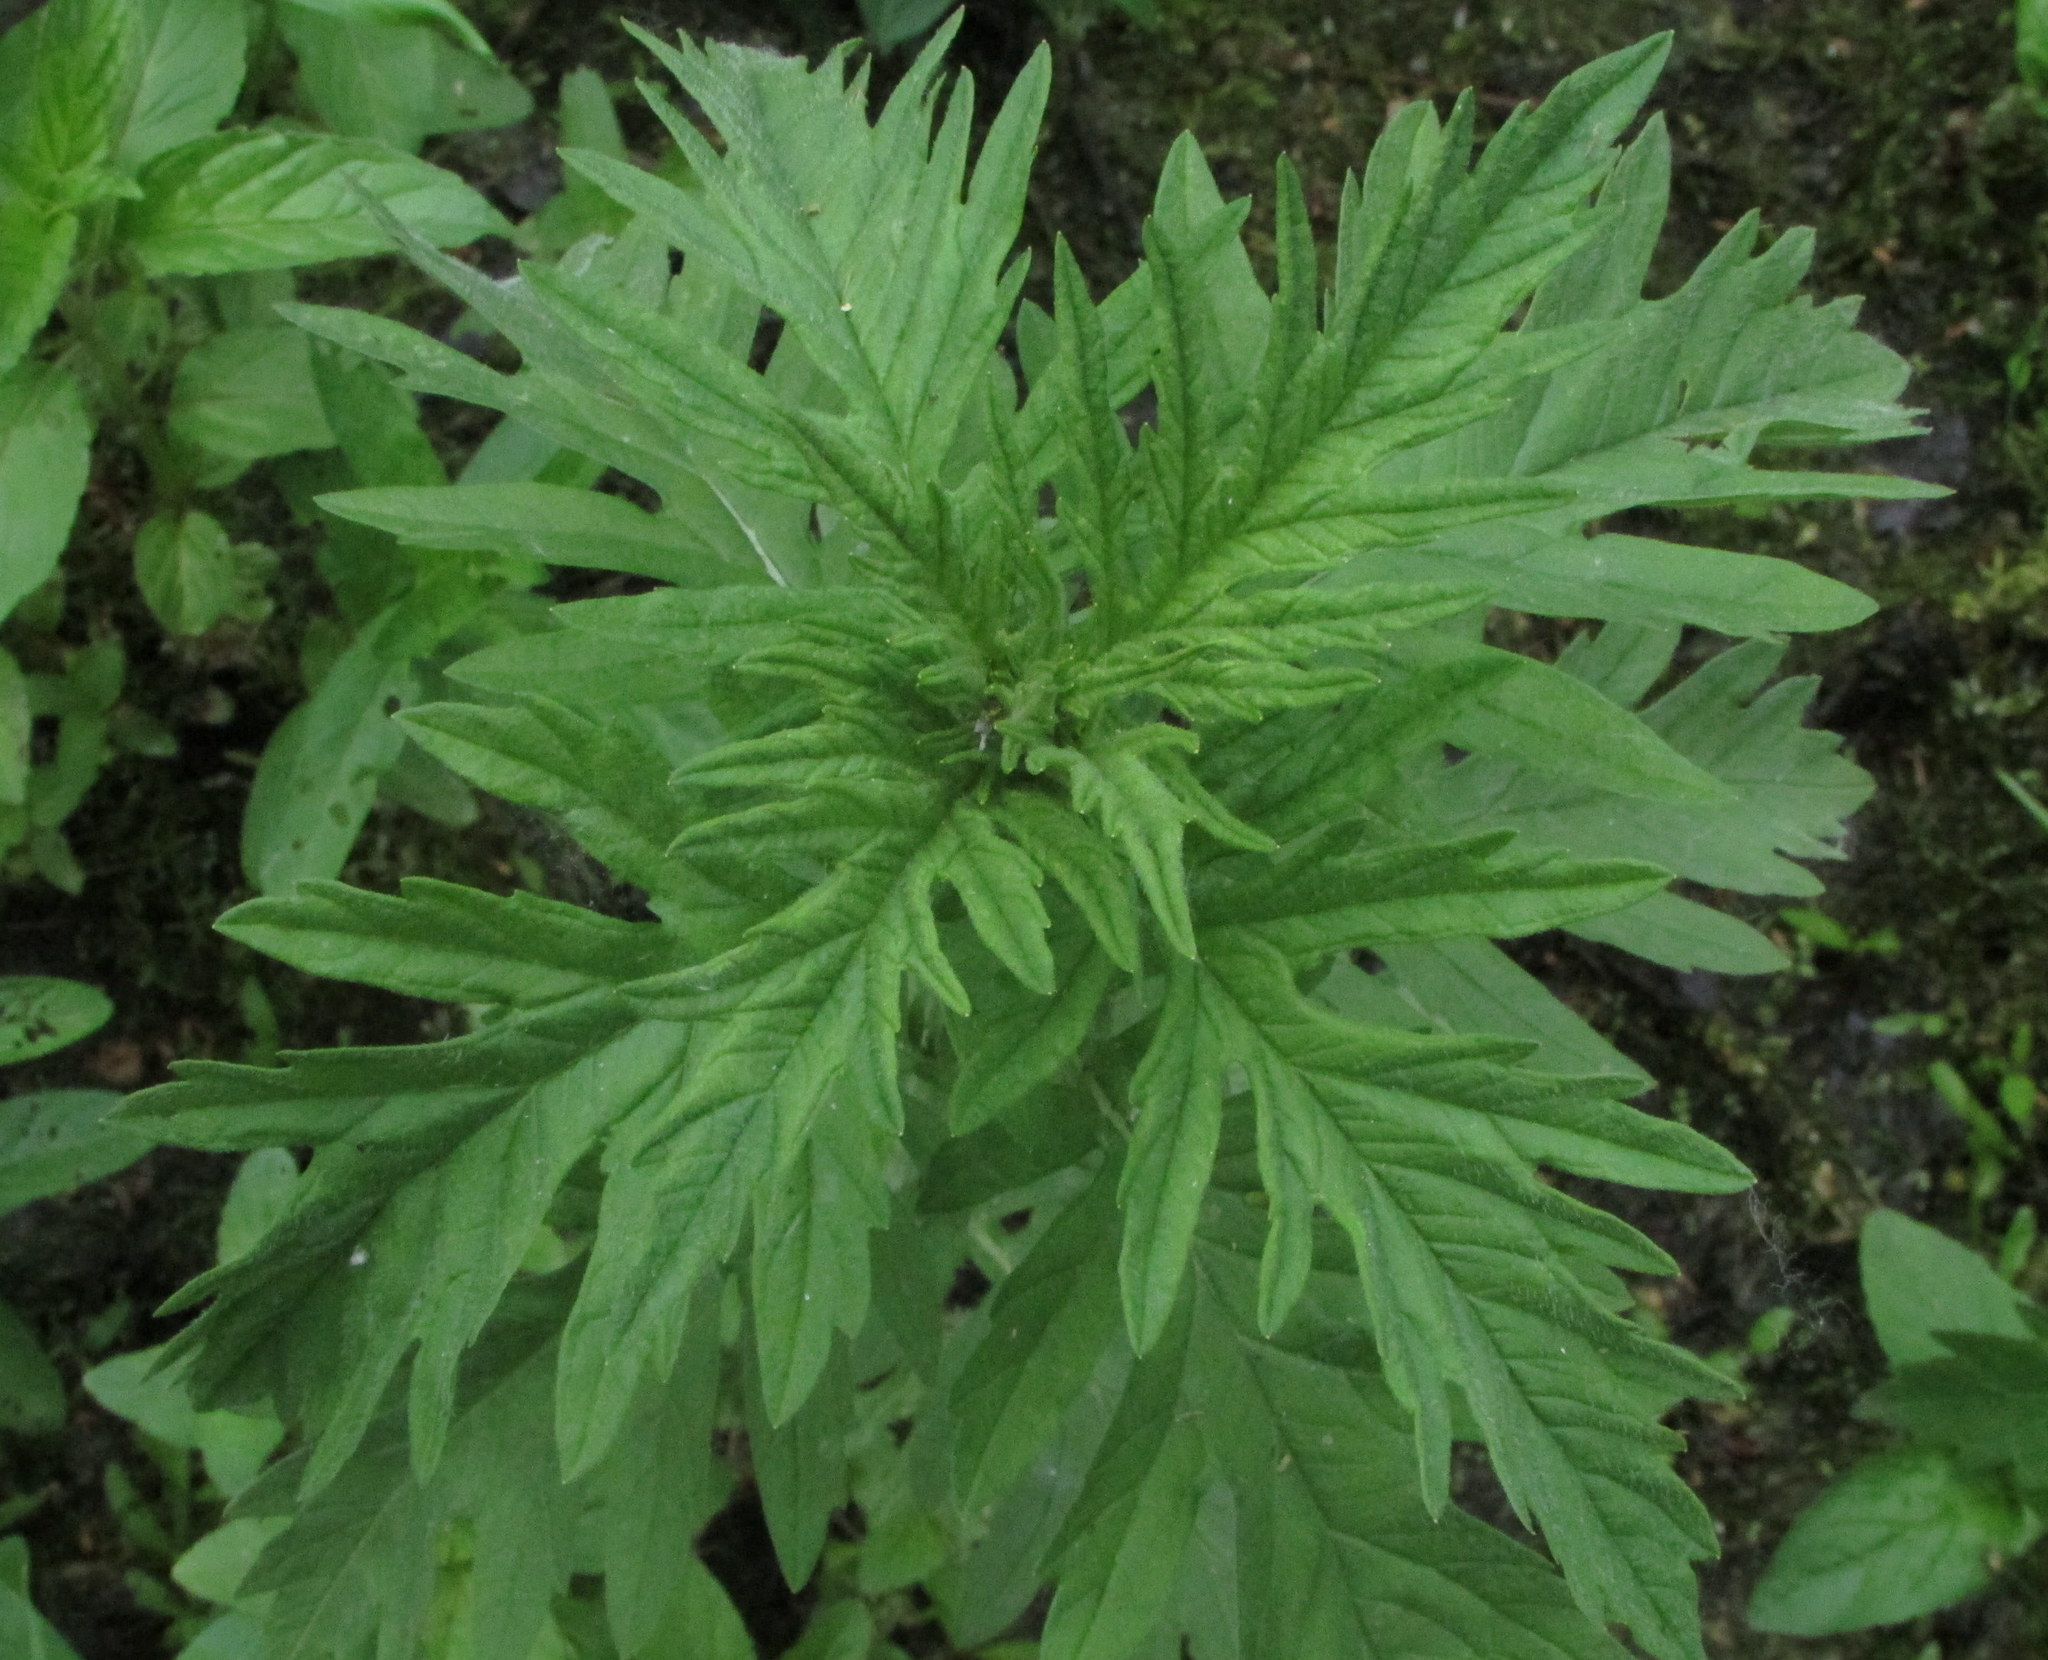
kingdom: Plantae
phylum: Tracheophyta
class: Magnoliopsida
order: Lamiales
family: Lamiaceae
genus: Lycopus
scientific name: Lycopus exaltatus
